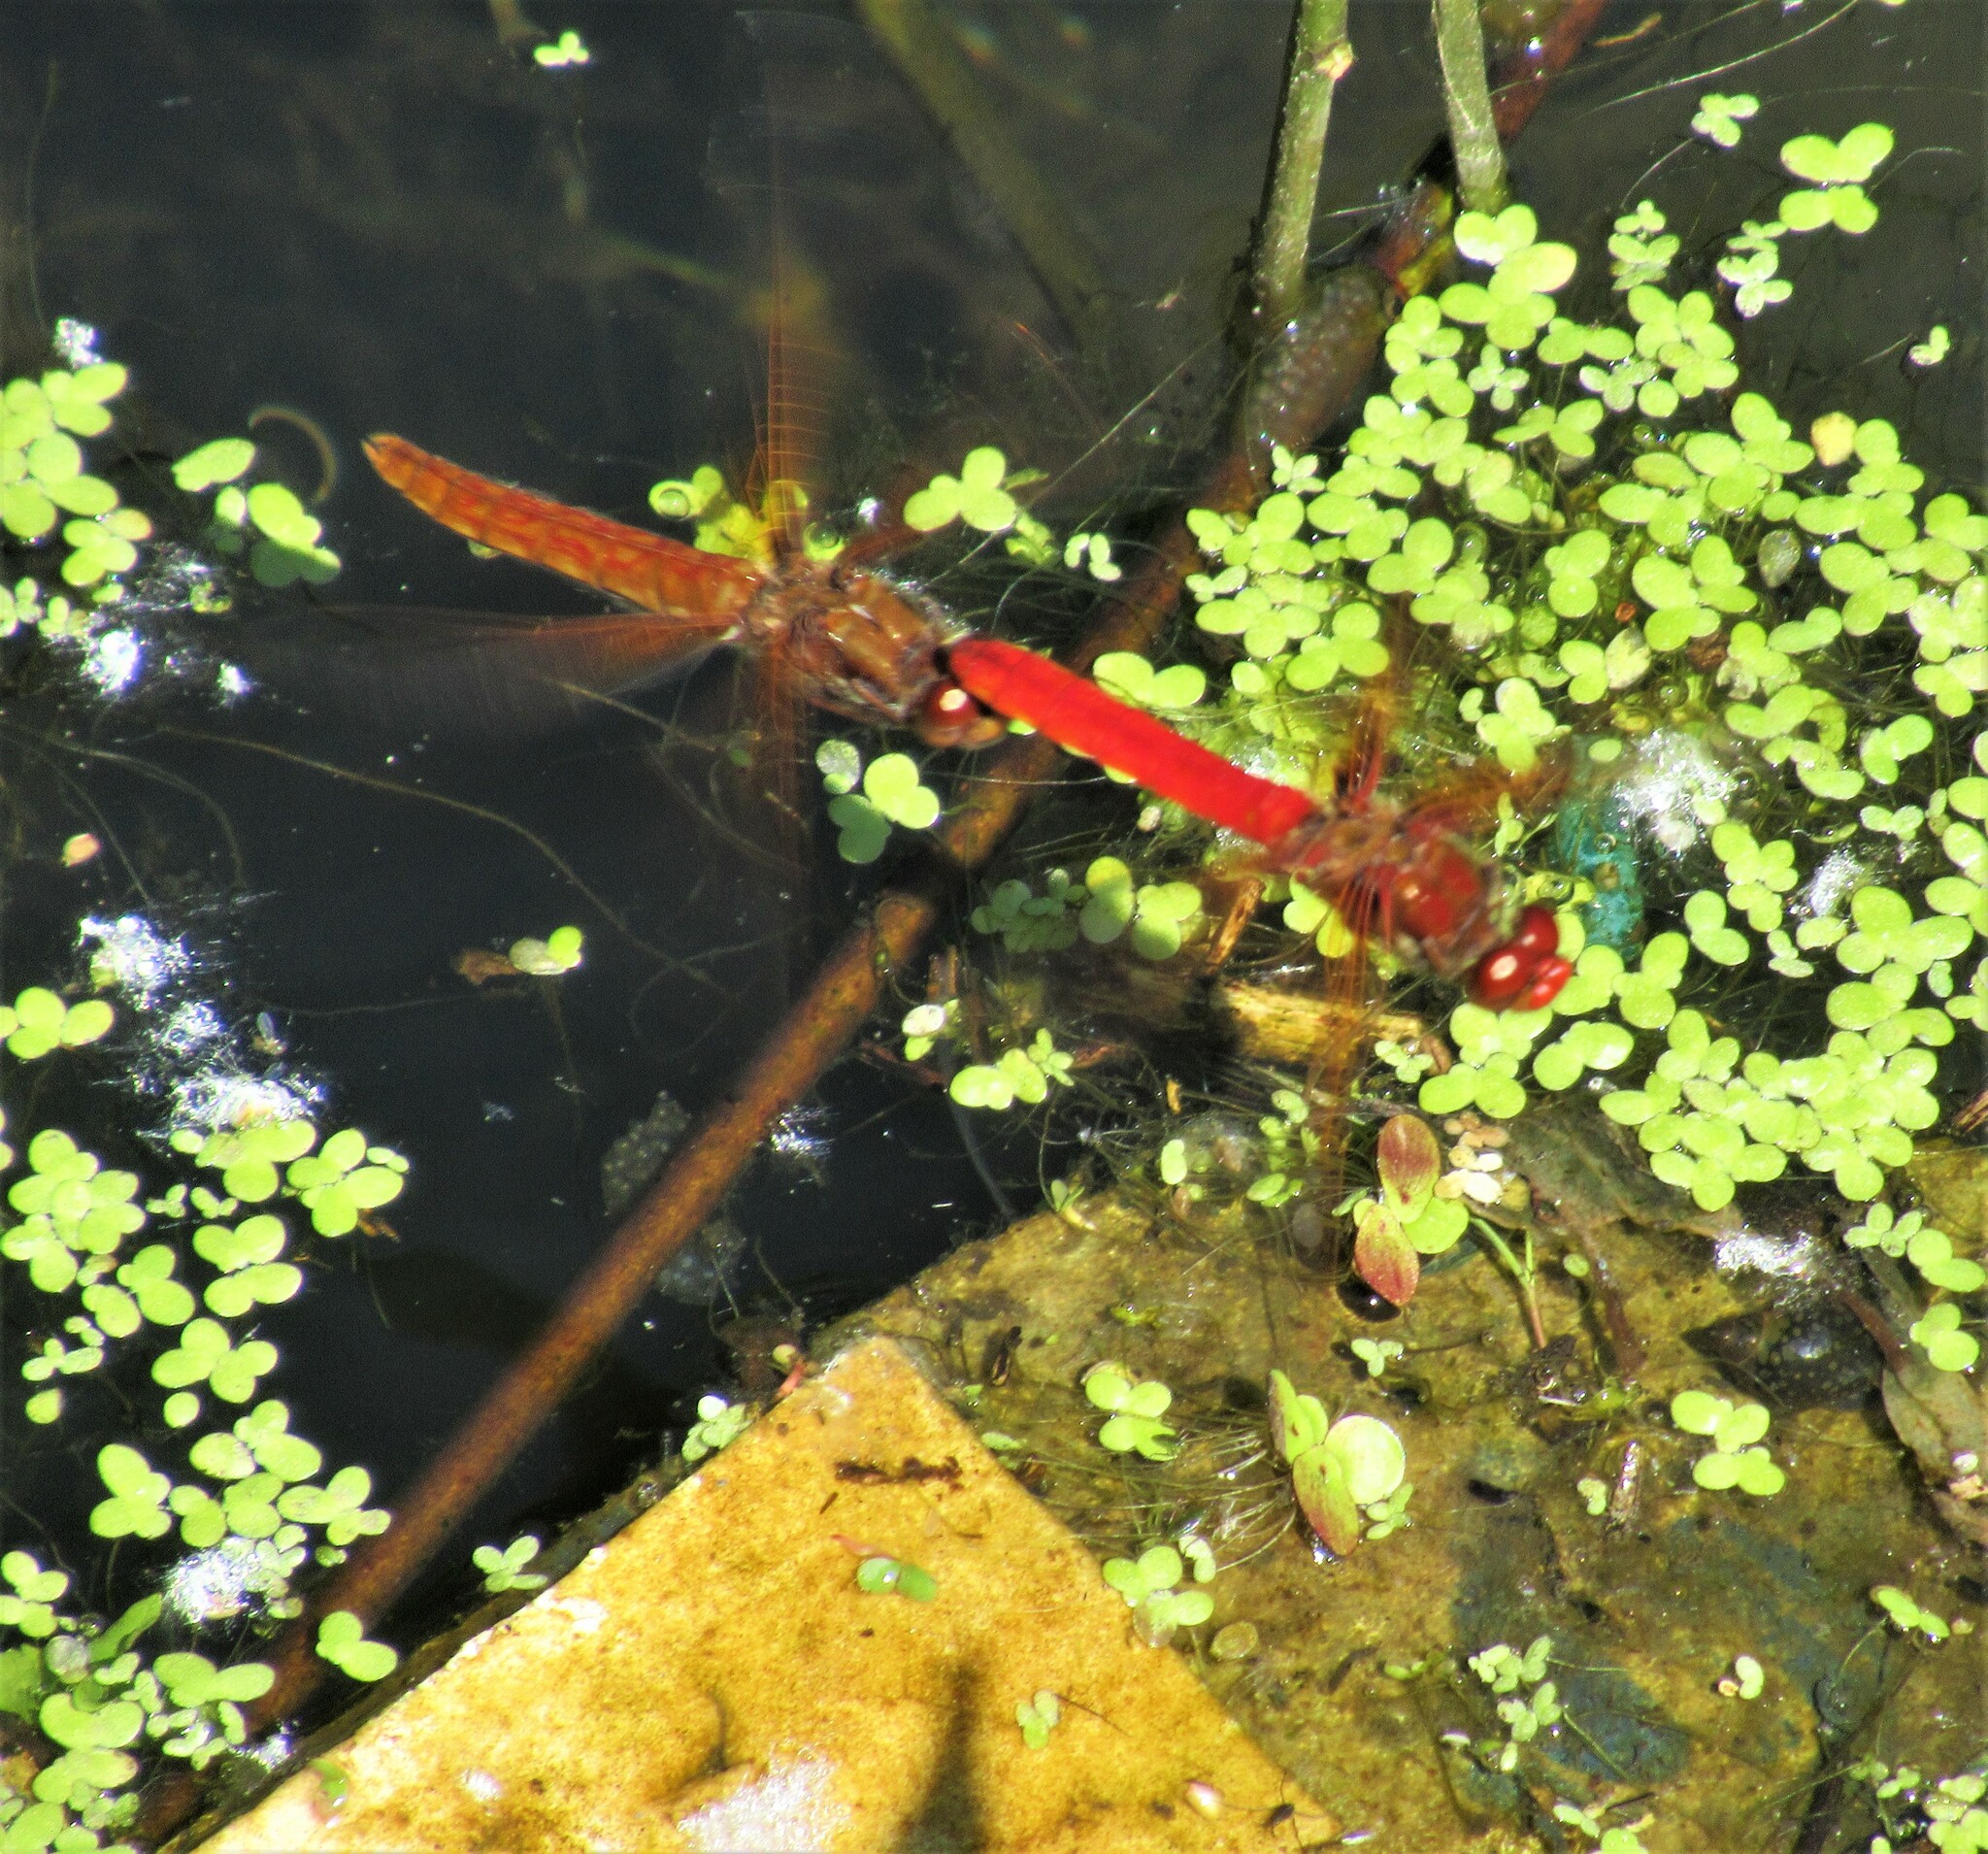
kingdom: Animalia
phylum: Arthropoda
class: Insecta
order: Odonata
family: Libellulidae
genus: Sympetrum
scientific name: Sympetrum illotum
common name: Cardinal meadowhawk
